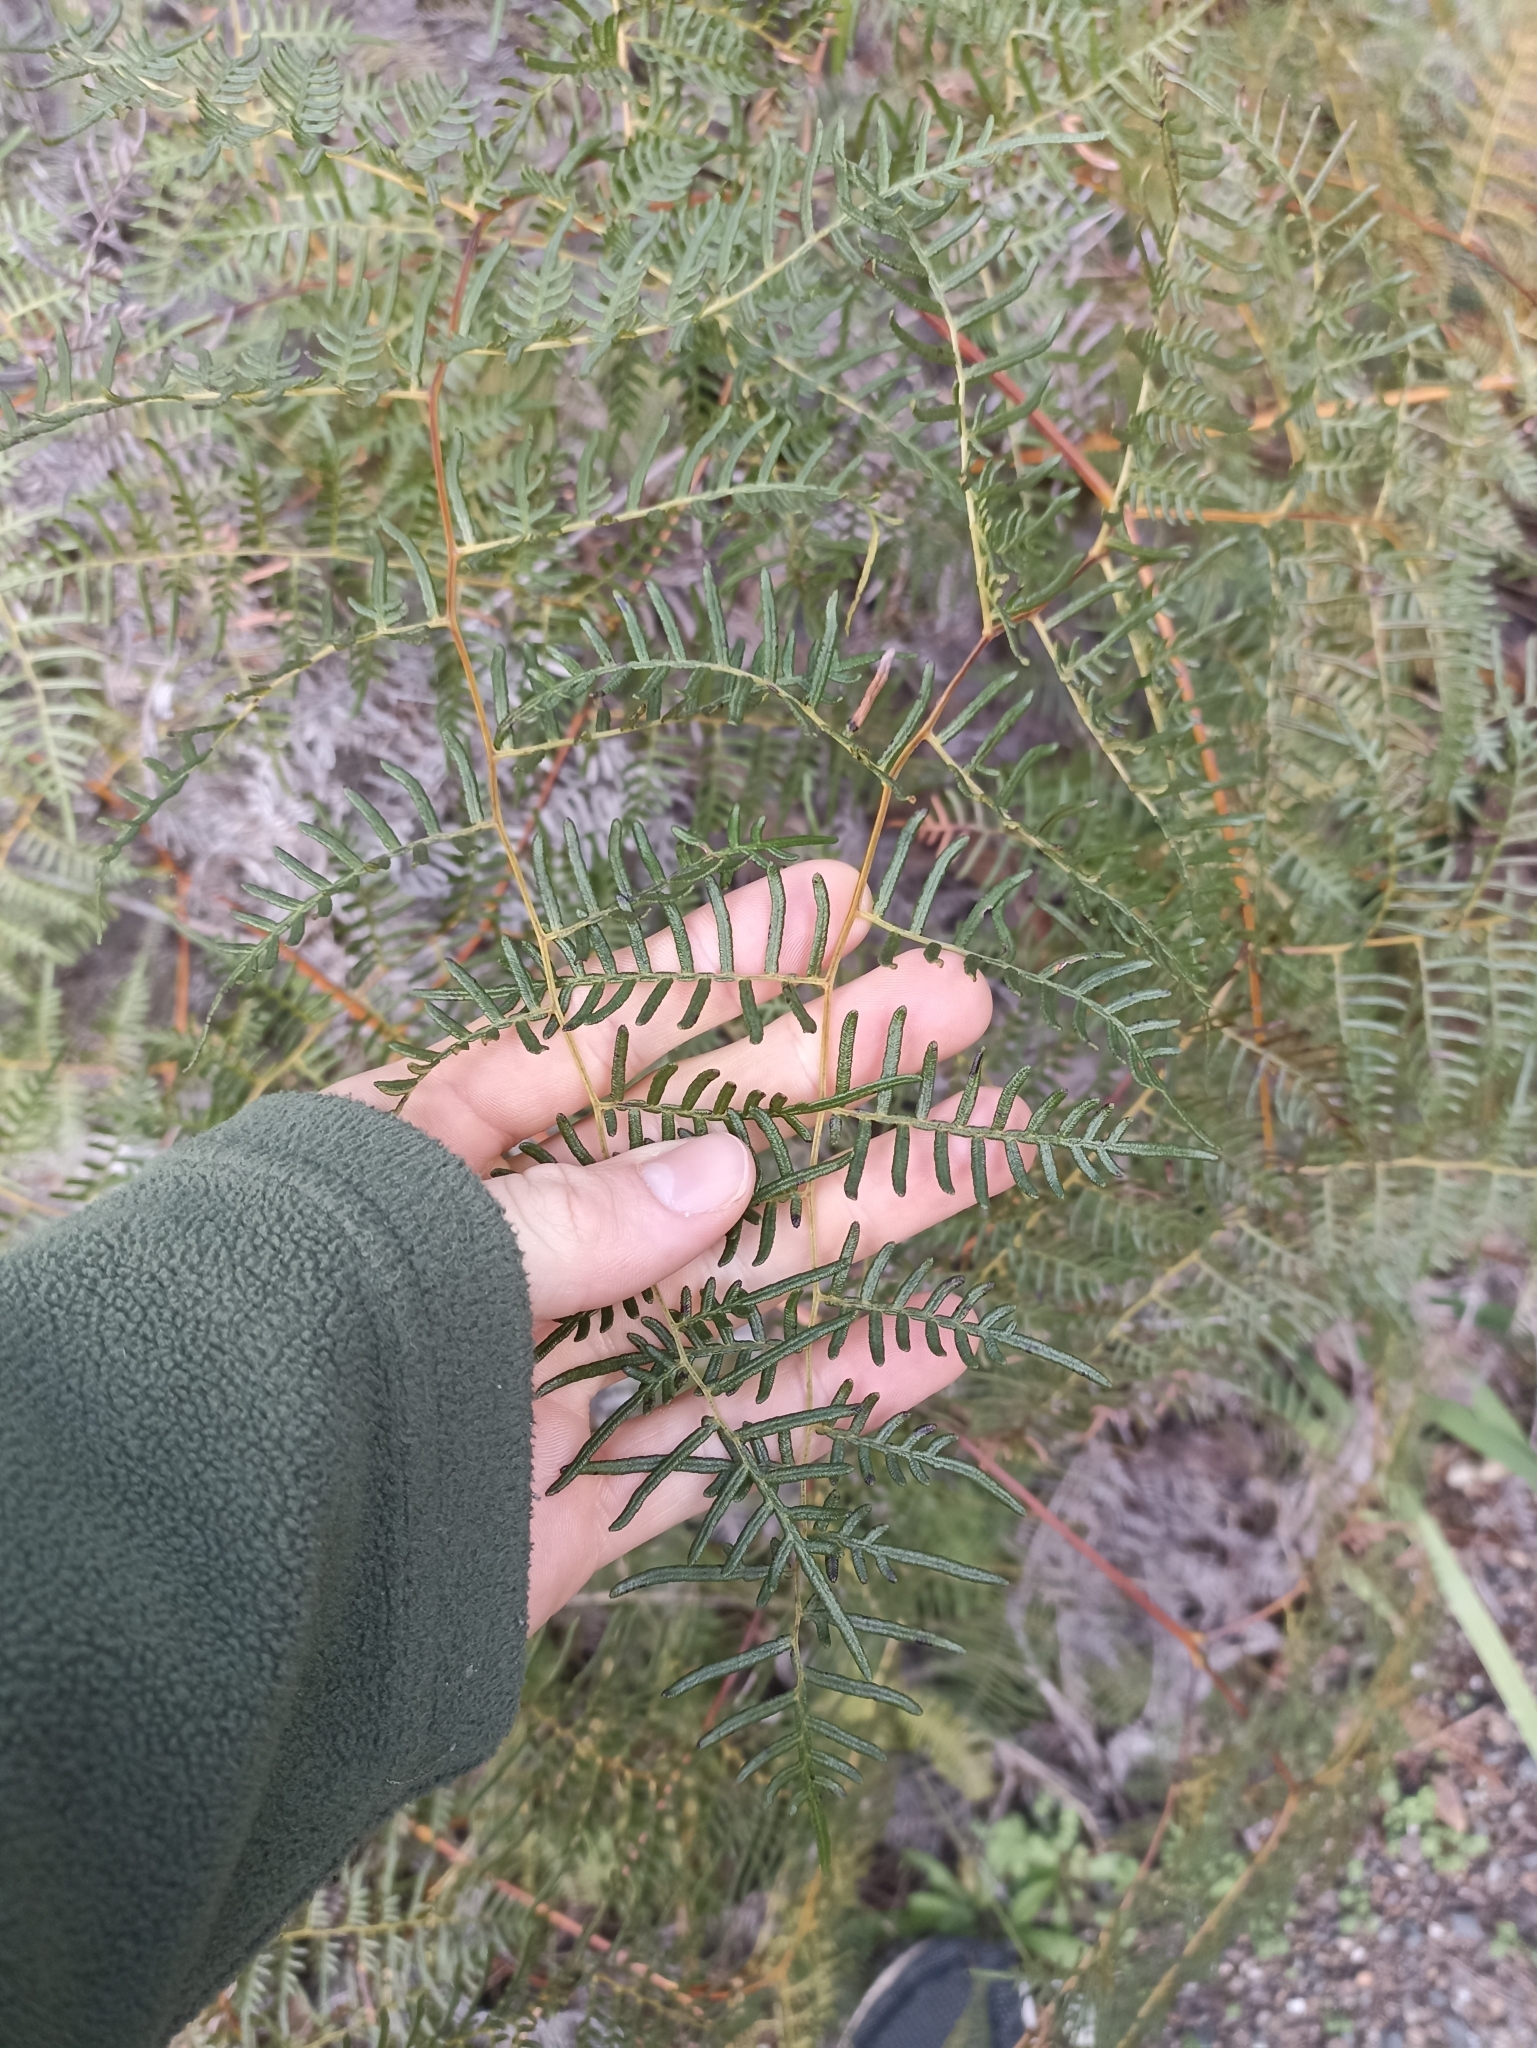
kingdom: Plantae
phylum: Tracheophyta
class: Polypodiopsida
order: Polypodiales
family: Dennstaedtiaceae
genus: Pteridium
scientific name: Pteridium esculentum
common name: Bracken fern
